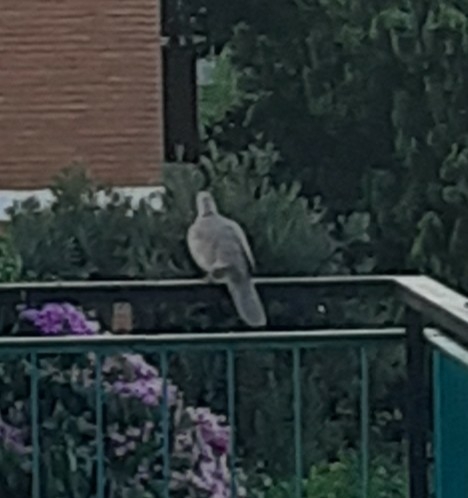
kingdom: Animalia
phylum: Chordata
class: Aves
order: Columbiformes
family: Columbidae
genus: Streptopelia
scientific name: Streptopelia decaocto
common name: Eurasian collared dove
